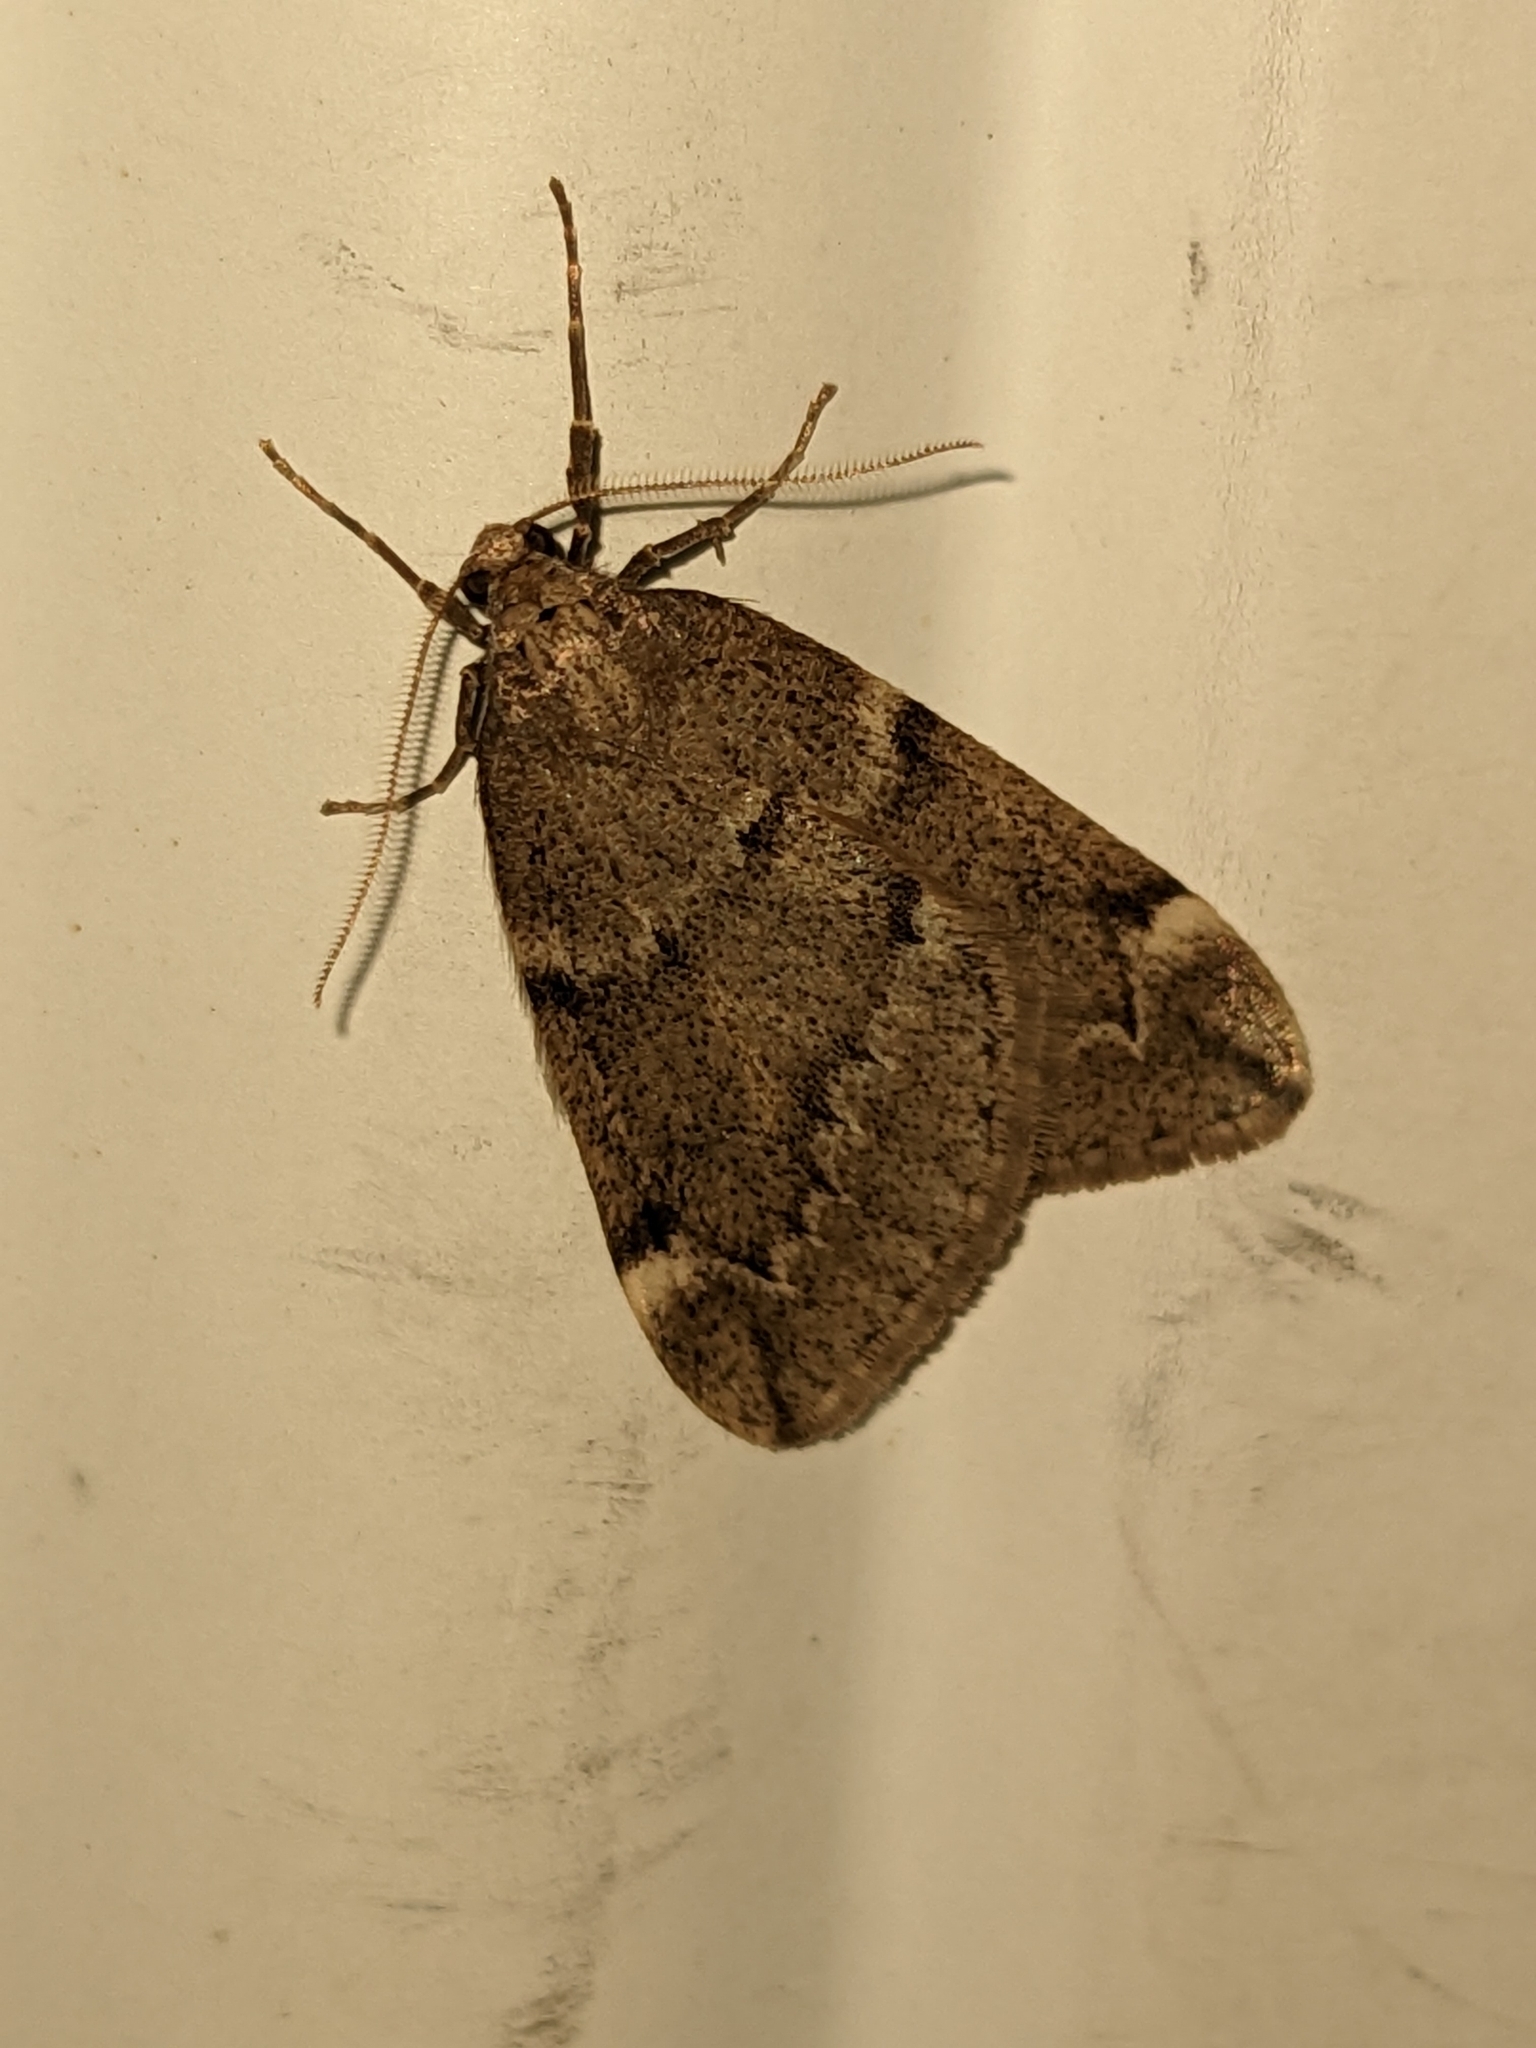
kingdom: Animalia
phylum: Arthropoda
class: Insecta
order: Lepidoptera
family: Geometridae
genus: Alsophila
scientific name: Alsophila pometaria
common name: Fall cankerworm
